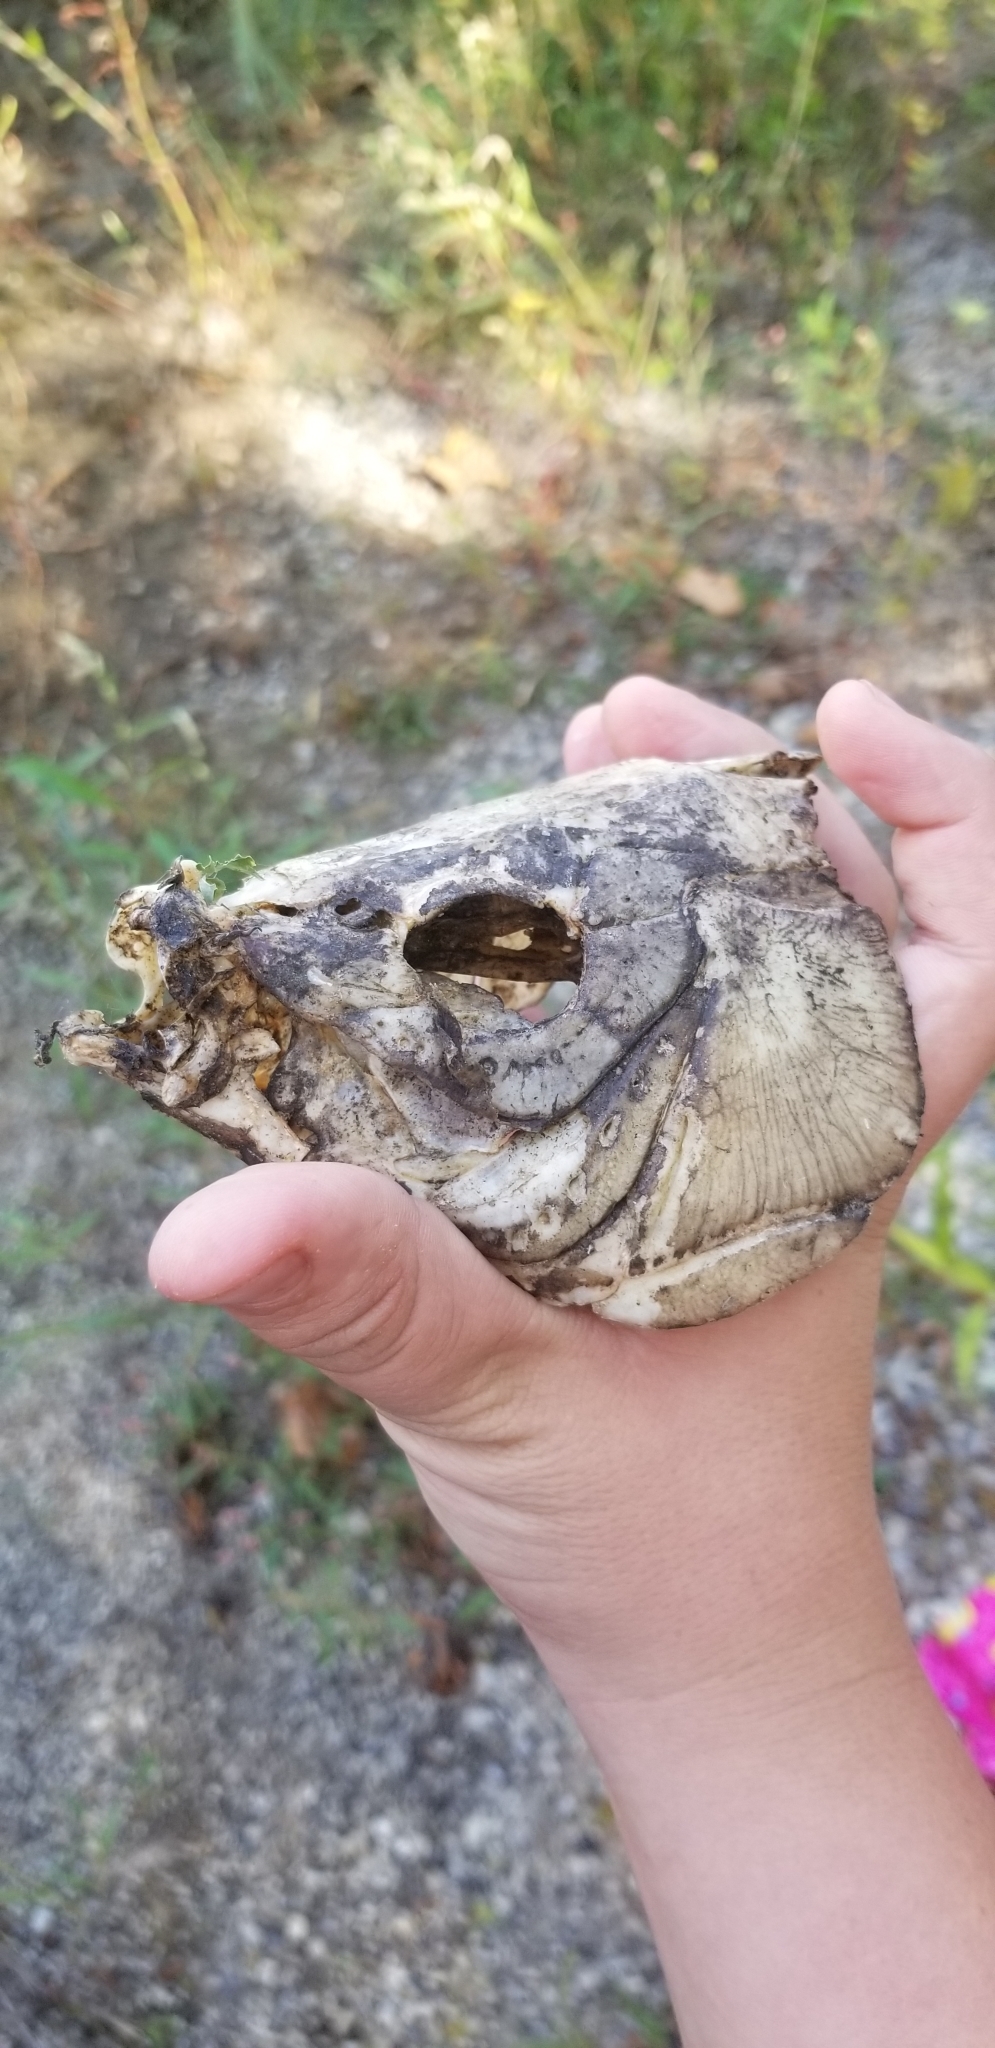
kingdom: Animalia
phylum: Chordata
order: Cypriniformes
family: Cyprinidae
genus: Cyprinus
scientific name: Cyprinus carpio
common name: Common carp
